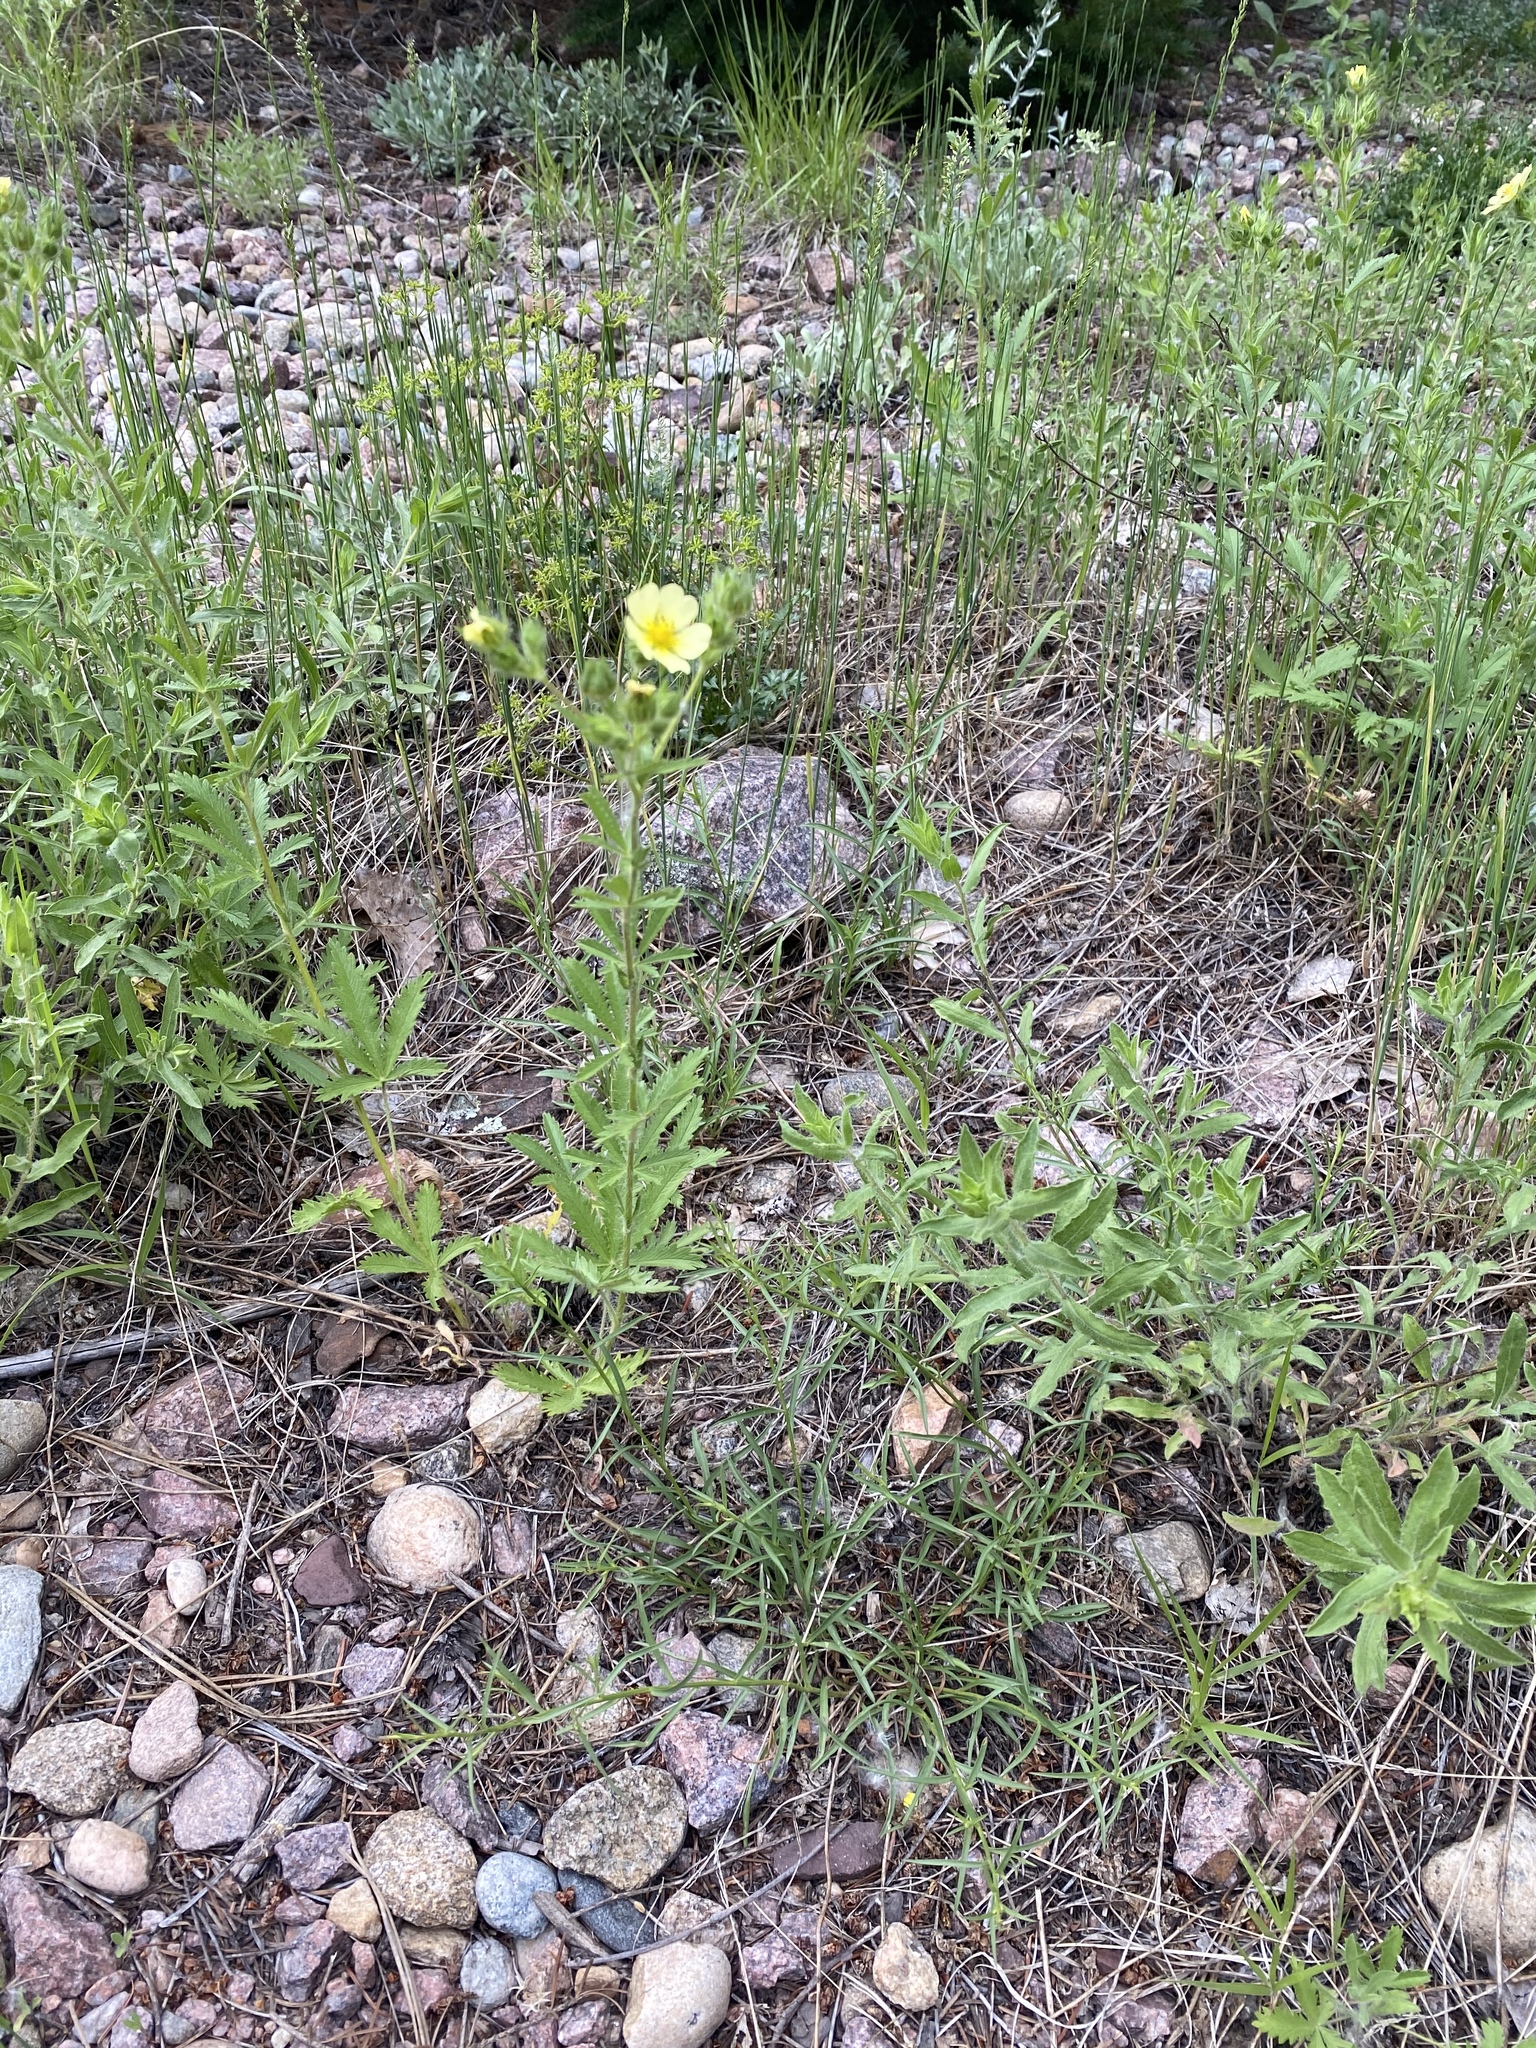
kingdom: Plantae
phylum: Tracheophyta
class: Magnoliopsida
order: Rosales
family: Rosaceae
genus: Potentilla
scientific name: Potentilla recta
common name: Sulphur cinquefoil
